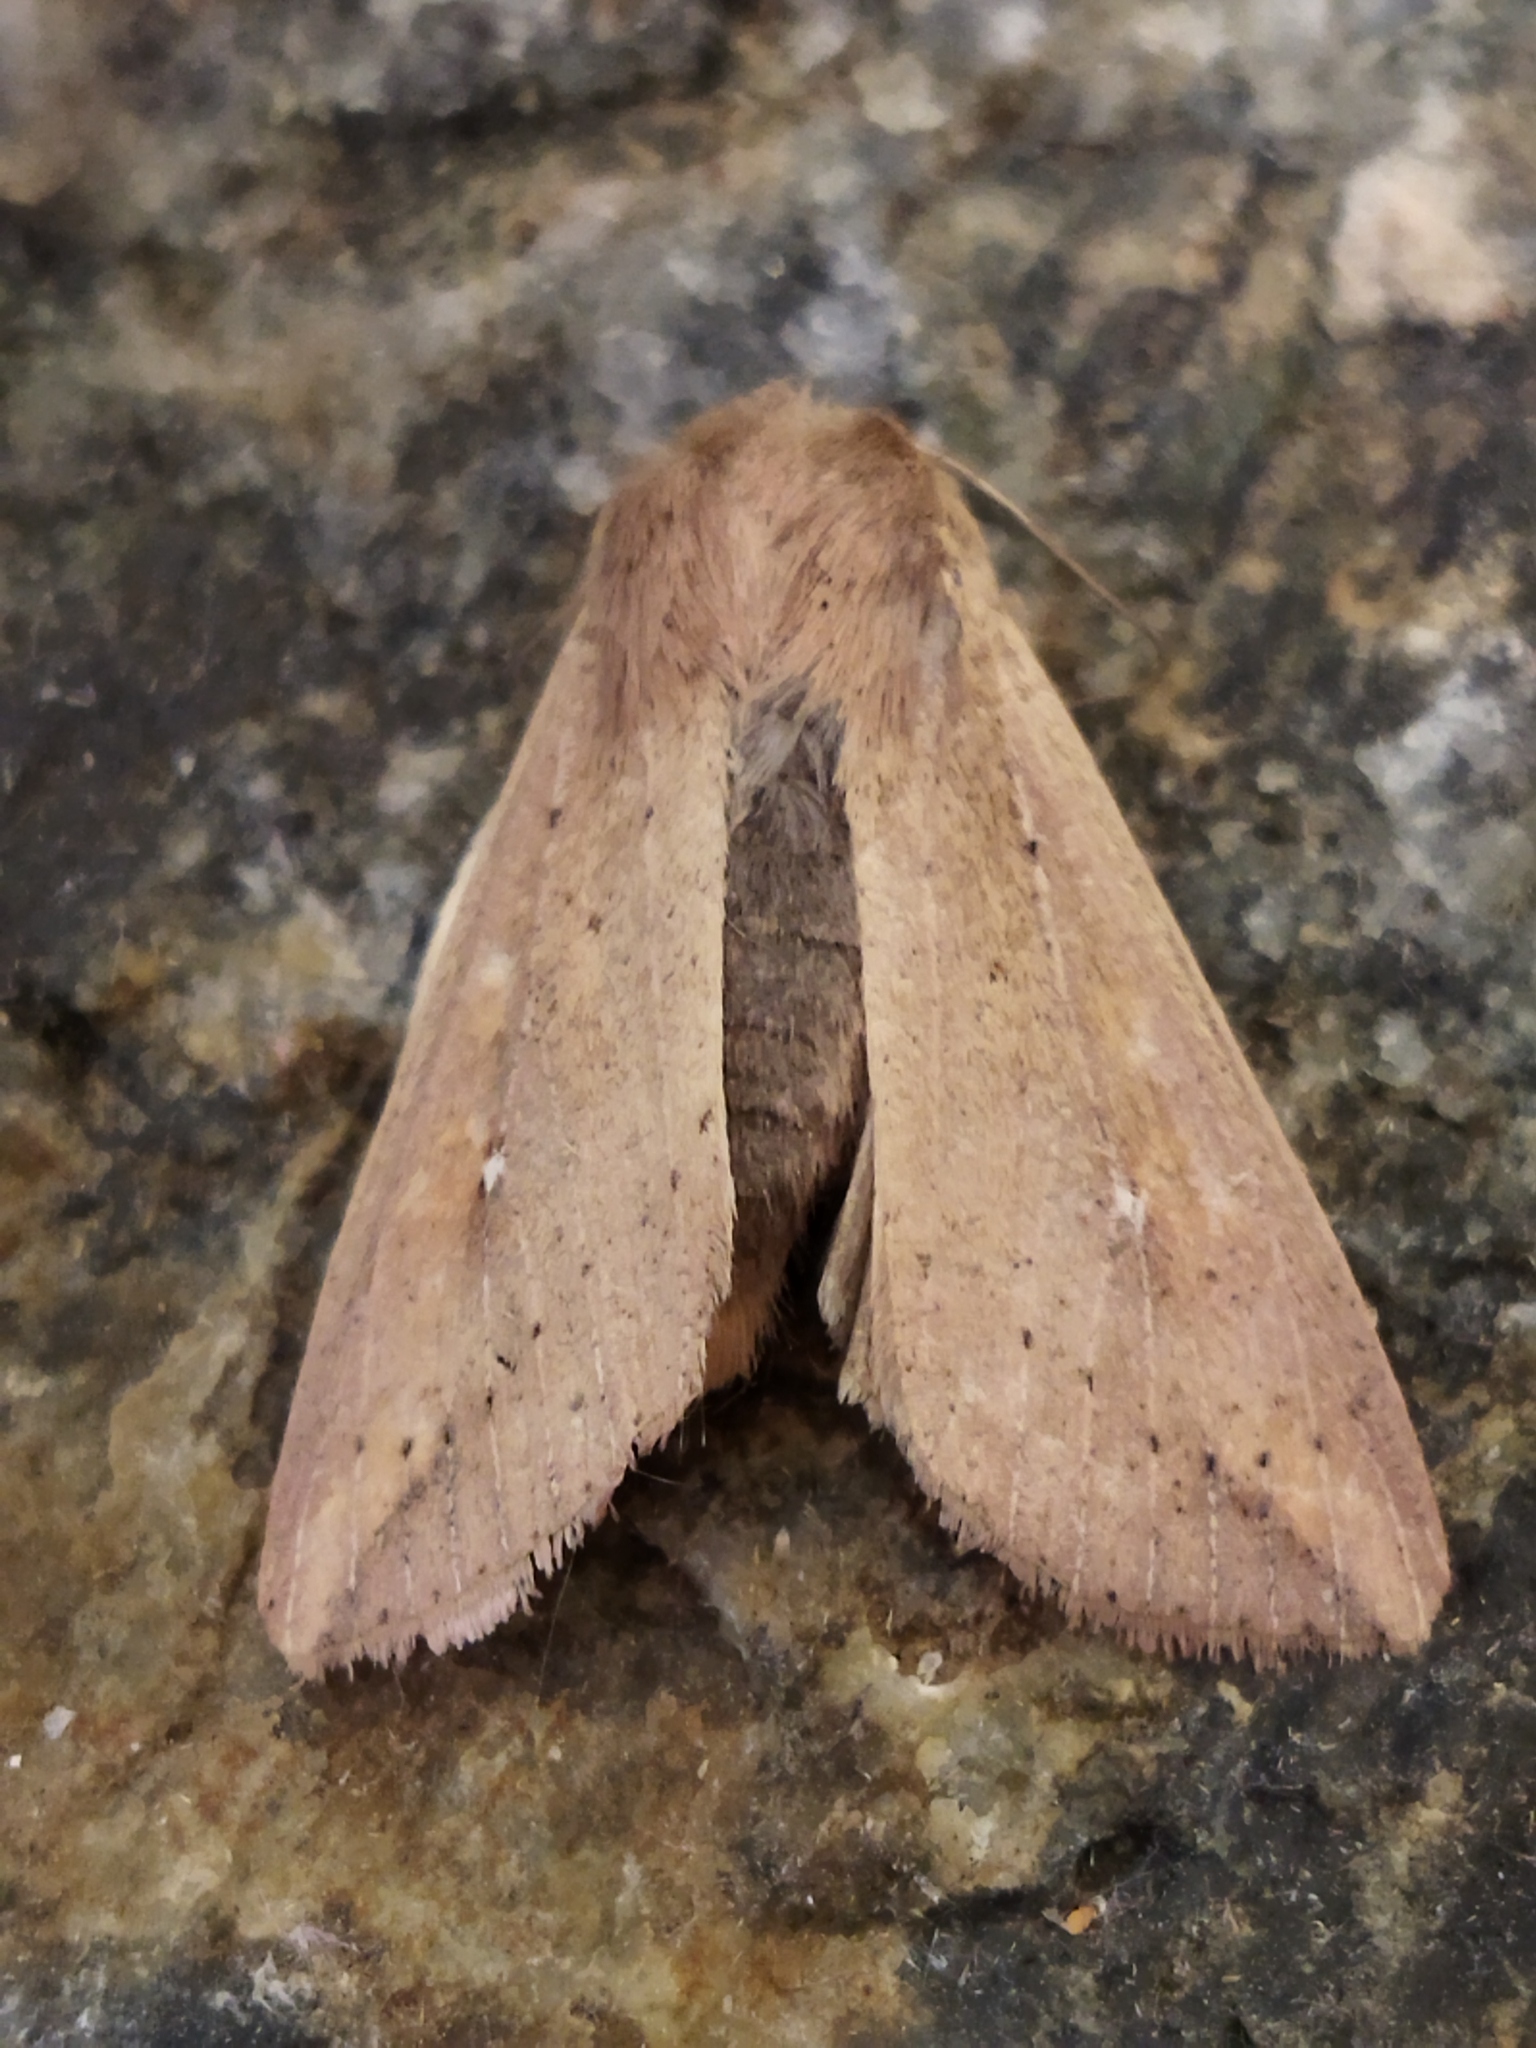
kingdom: Animalia
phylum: Arthropoda
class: Insecta
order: Lepidoptera
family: Noctuidae
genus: Mythimna
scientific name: Mythimna unipuncta
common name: White-speck
